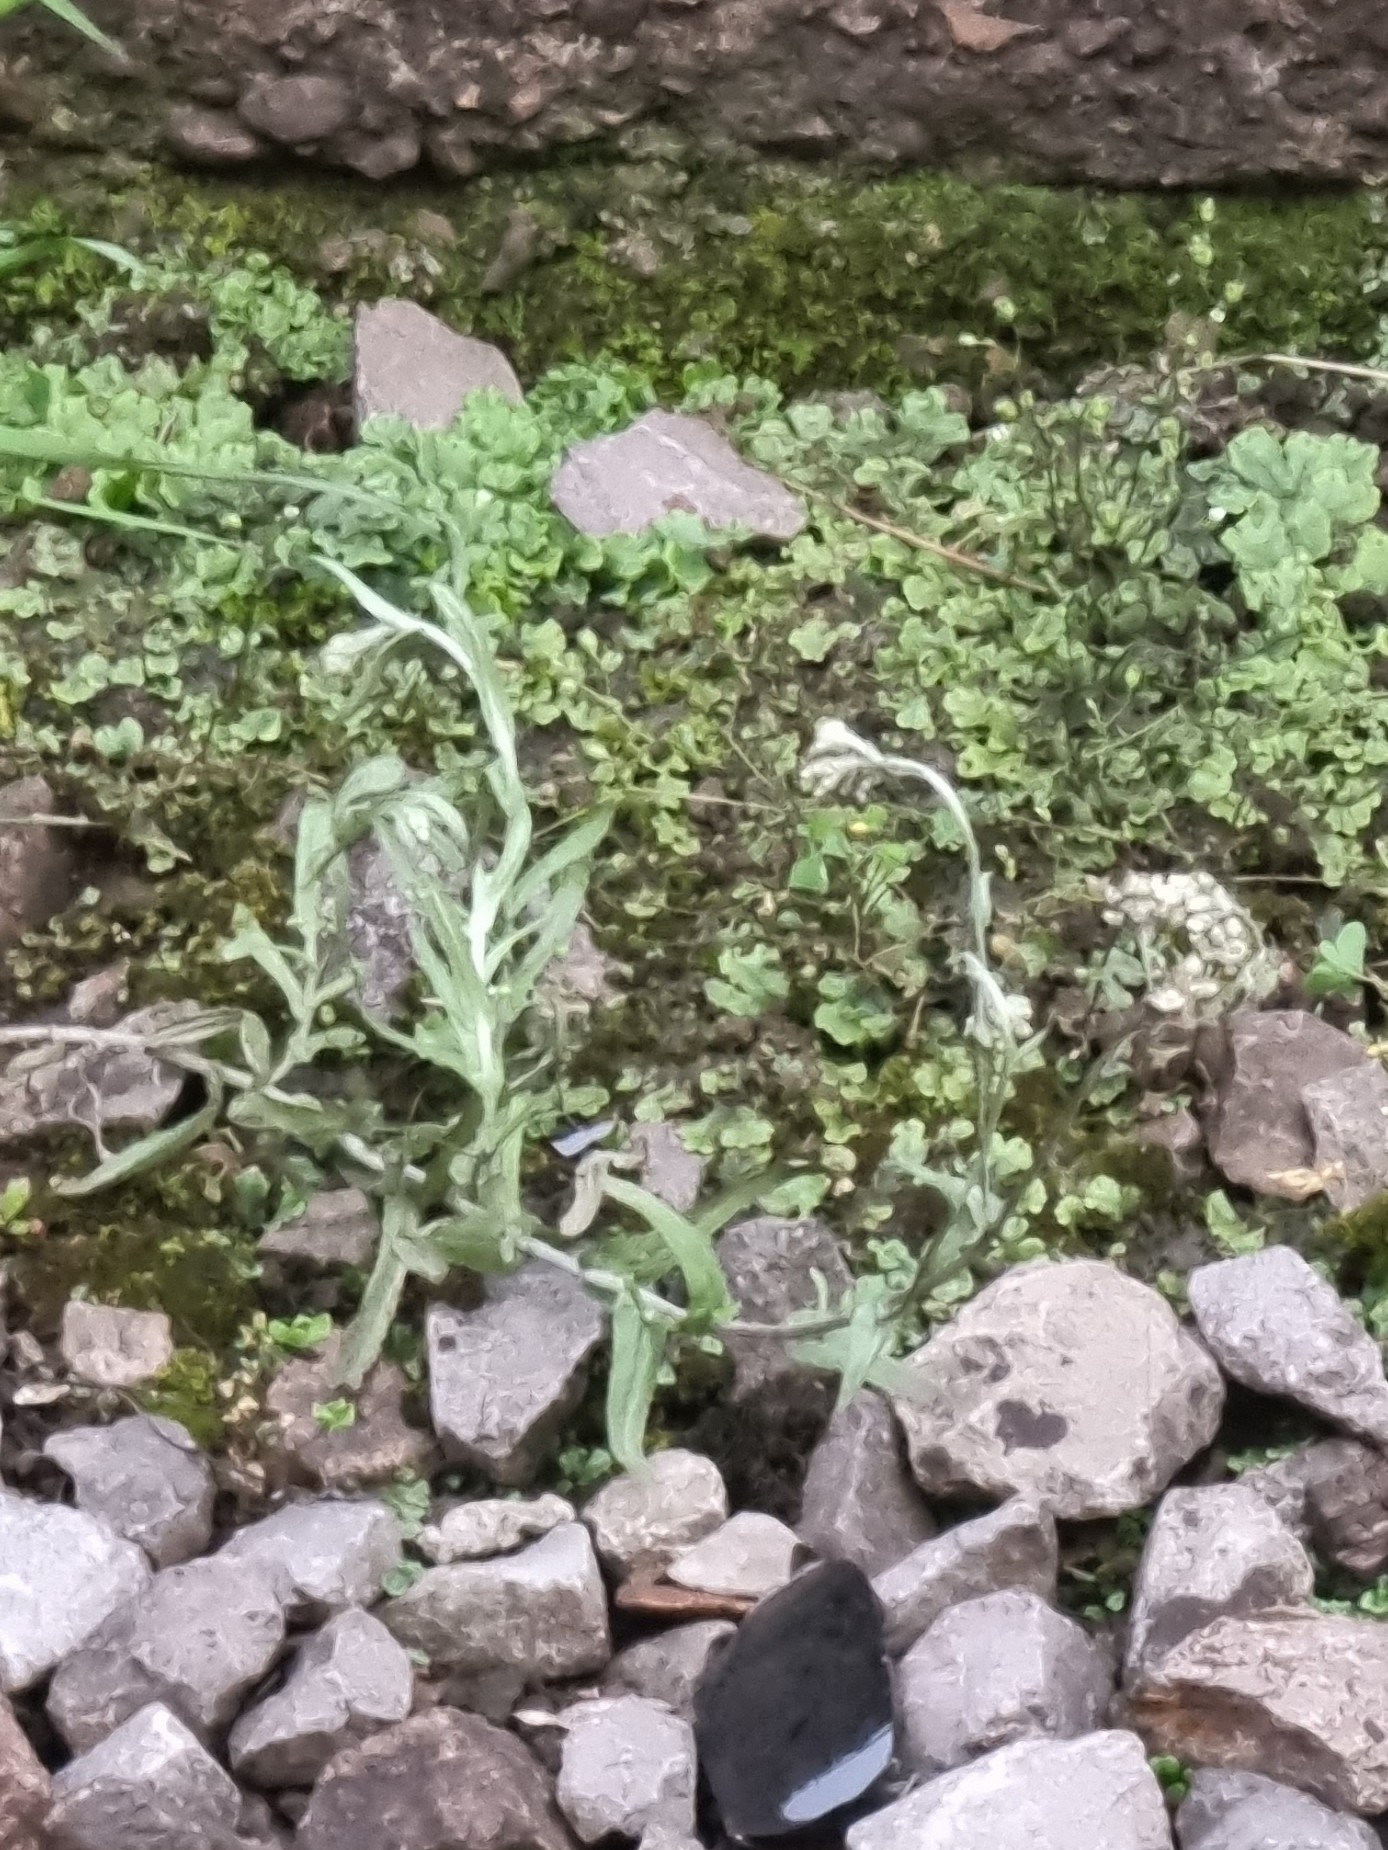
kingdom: Plantae
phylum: Tracheophyta
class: Magnoliopsida
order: Asterales
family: Asteraceae
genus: Helichrysum
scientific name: Helichrysum luteoalbum
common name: Daisy
